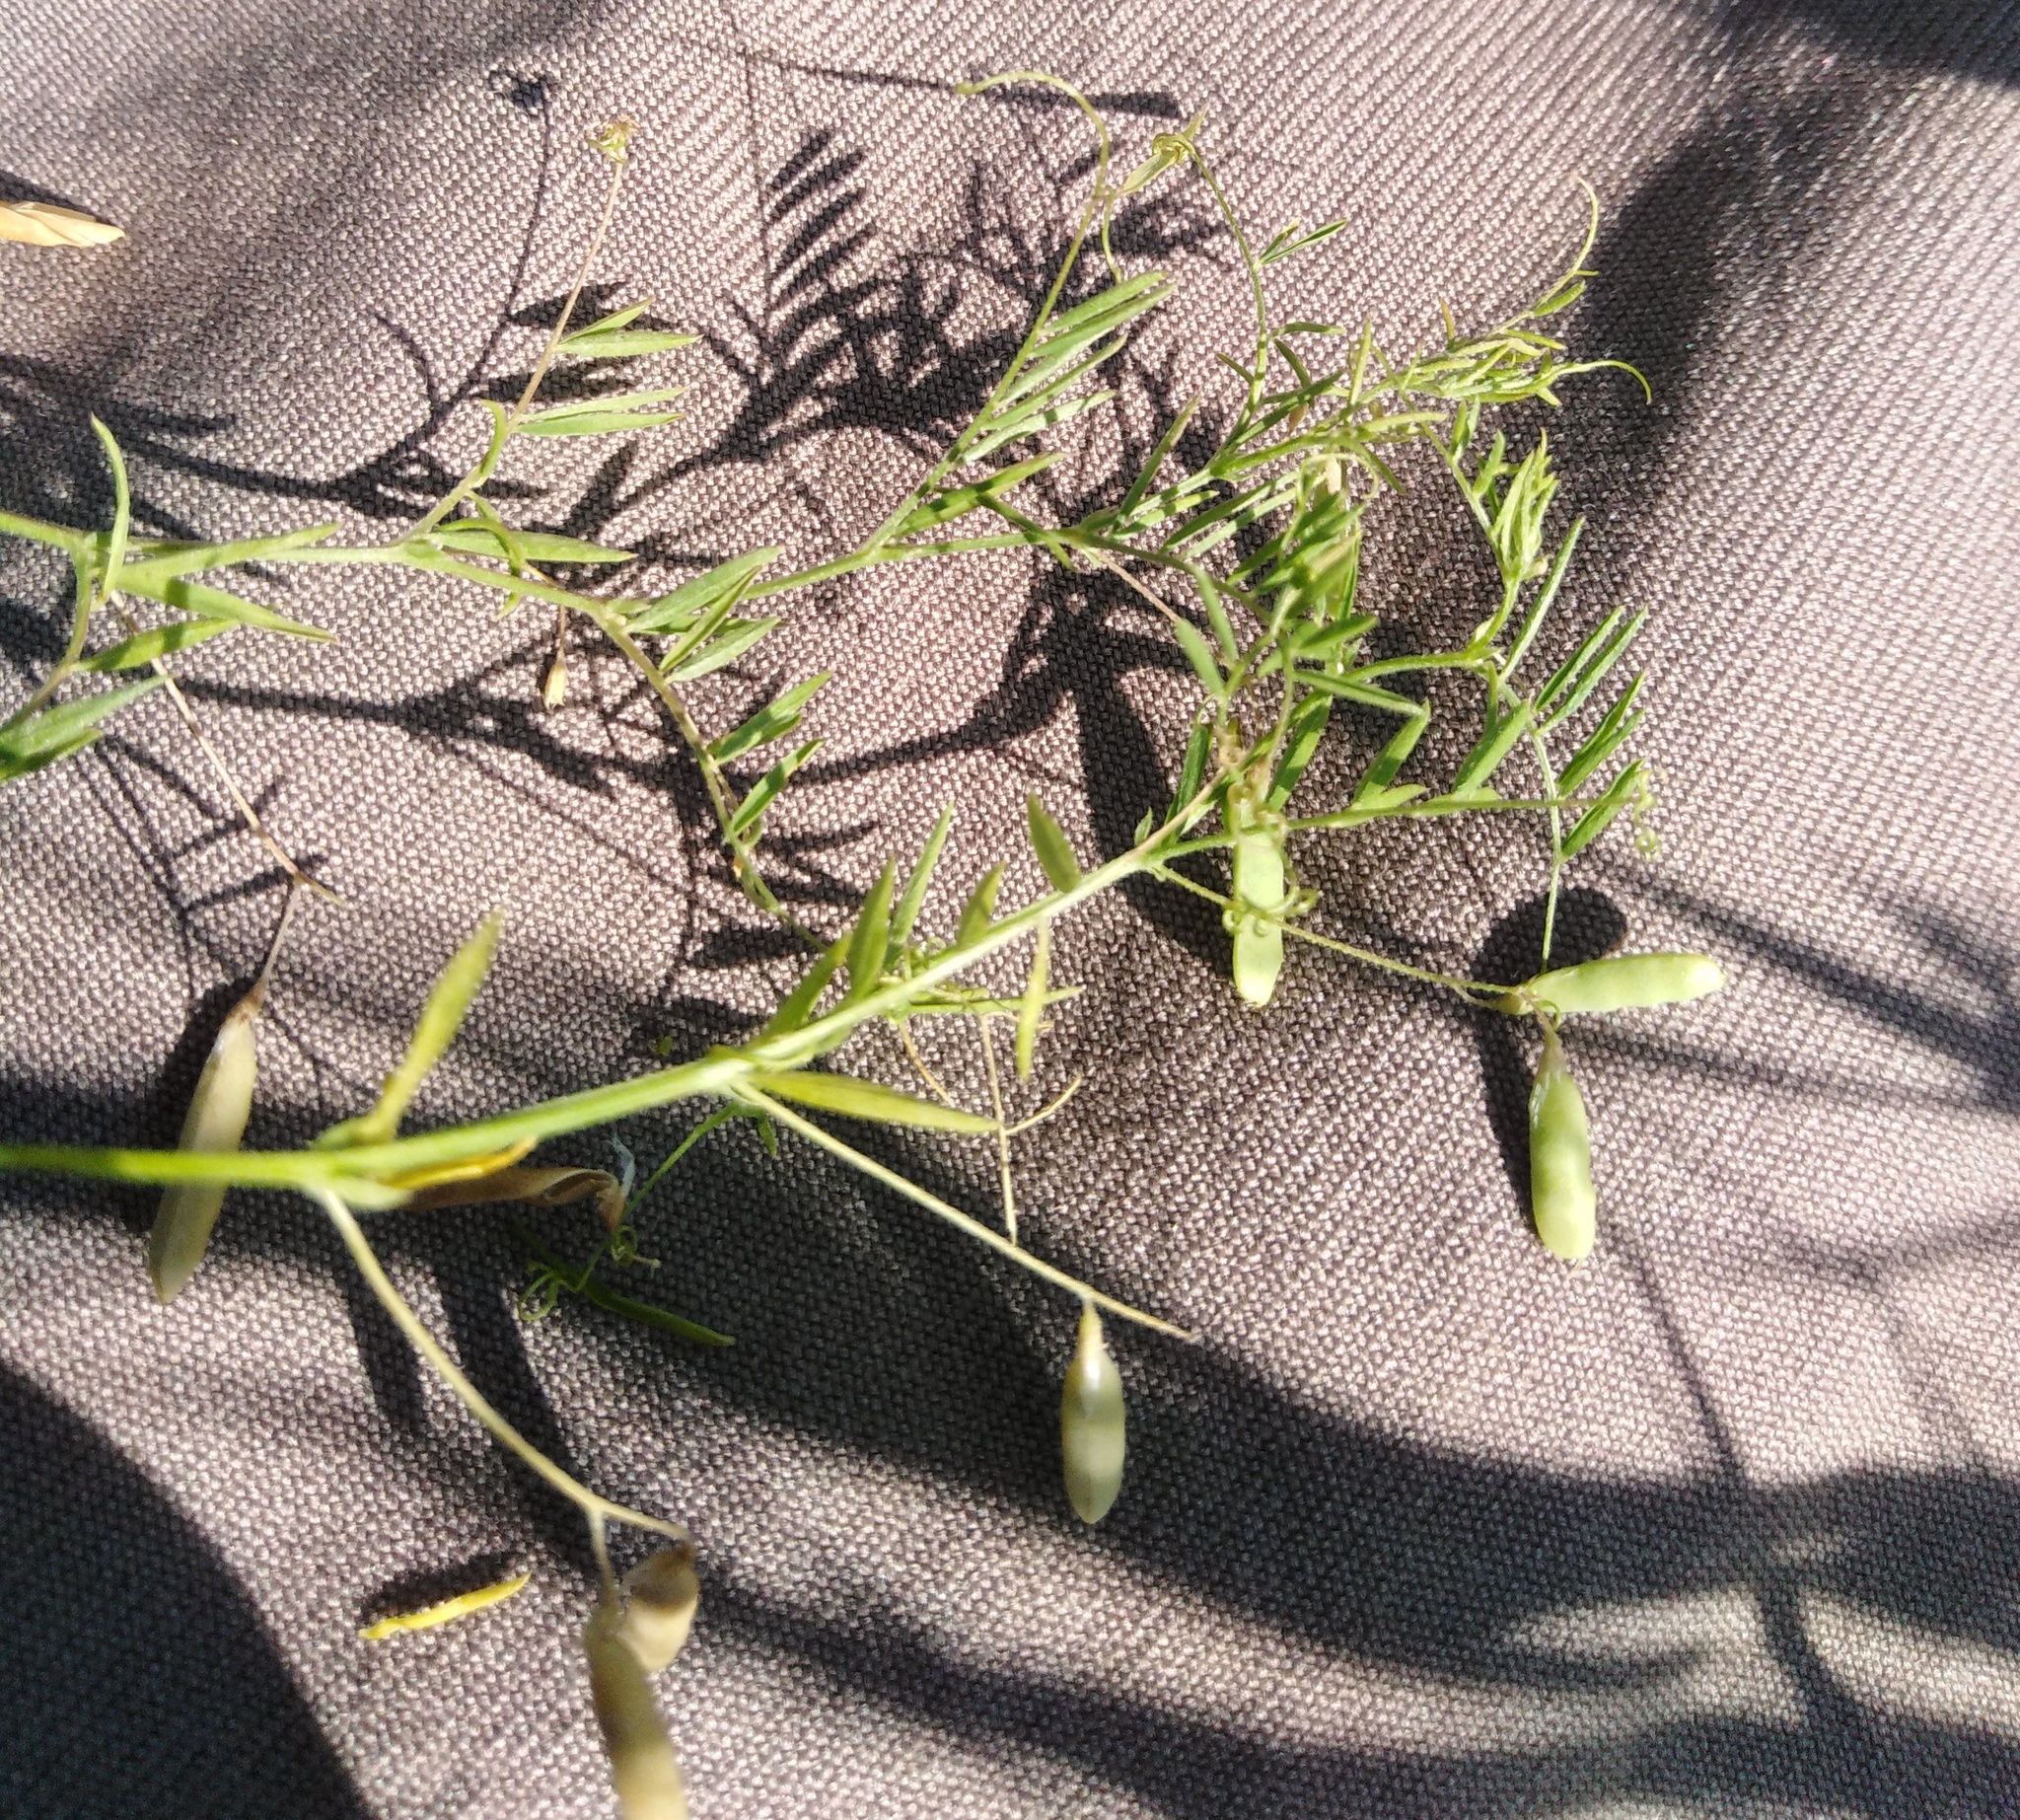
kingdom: Plantae
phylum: Tracheophyta
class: Magnoliopsida
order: Fabales
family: Fabaceae
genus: Vicia
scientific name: Vicia tetrasperma
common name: Smooth tare
